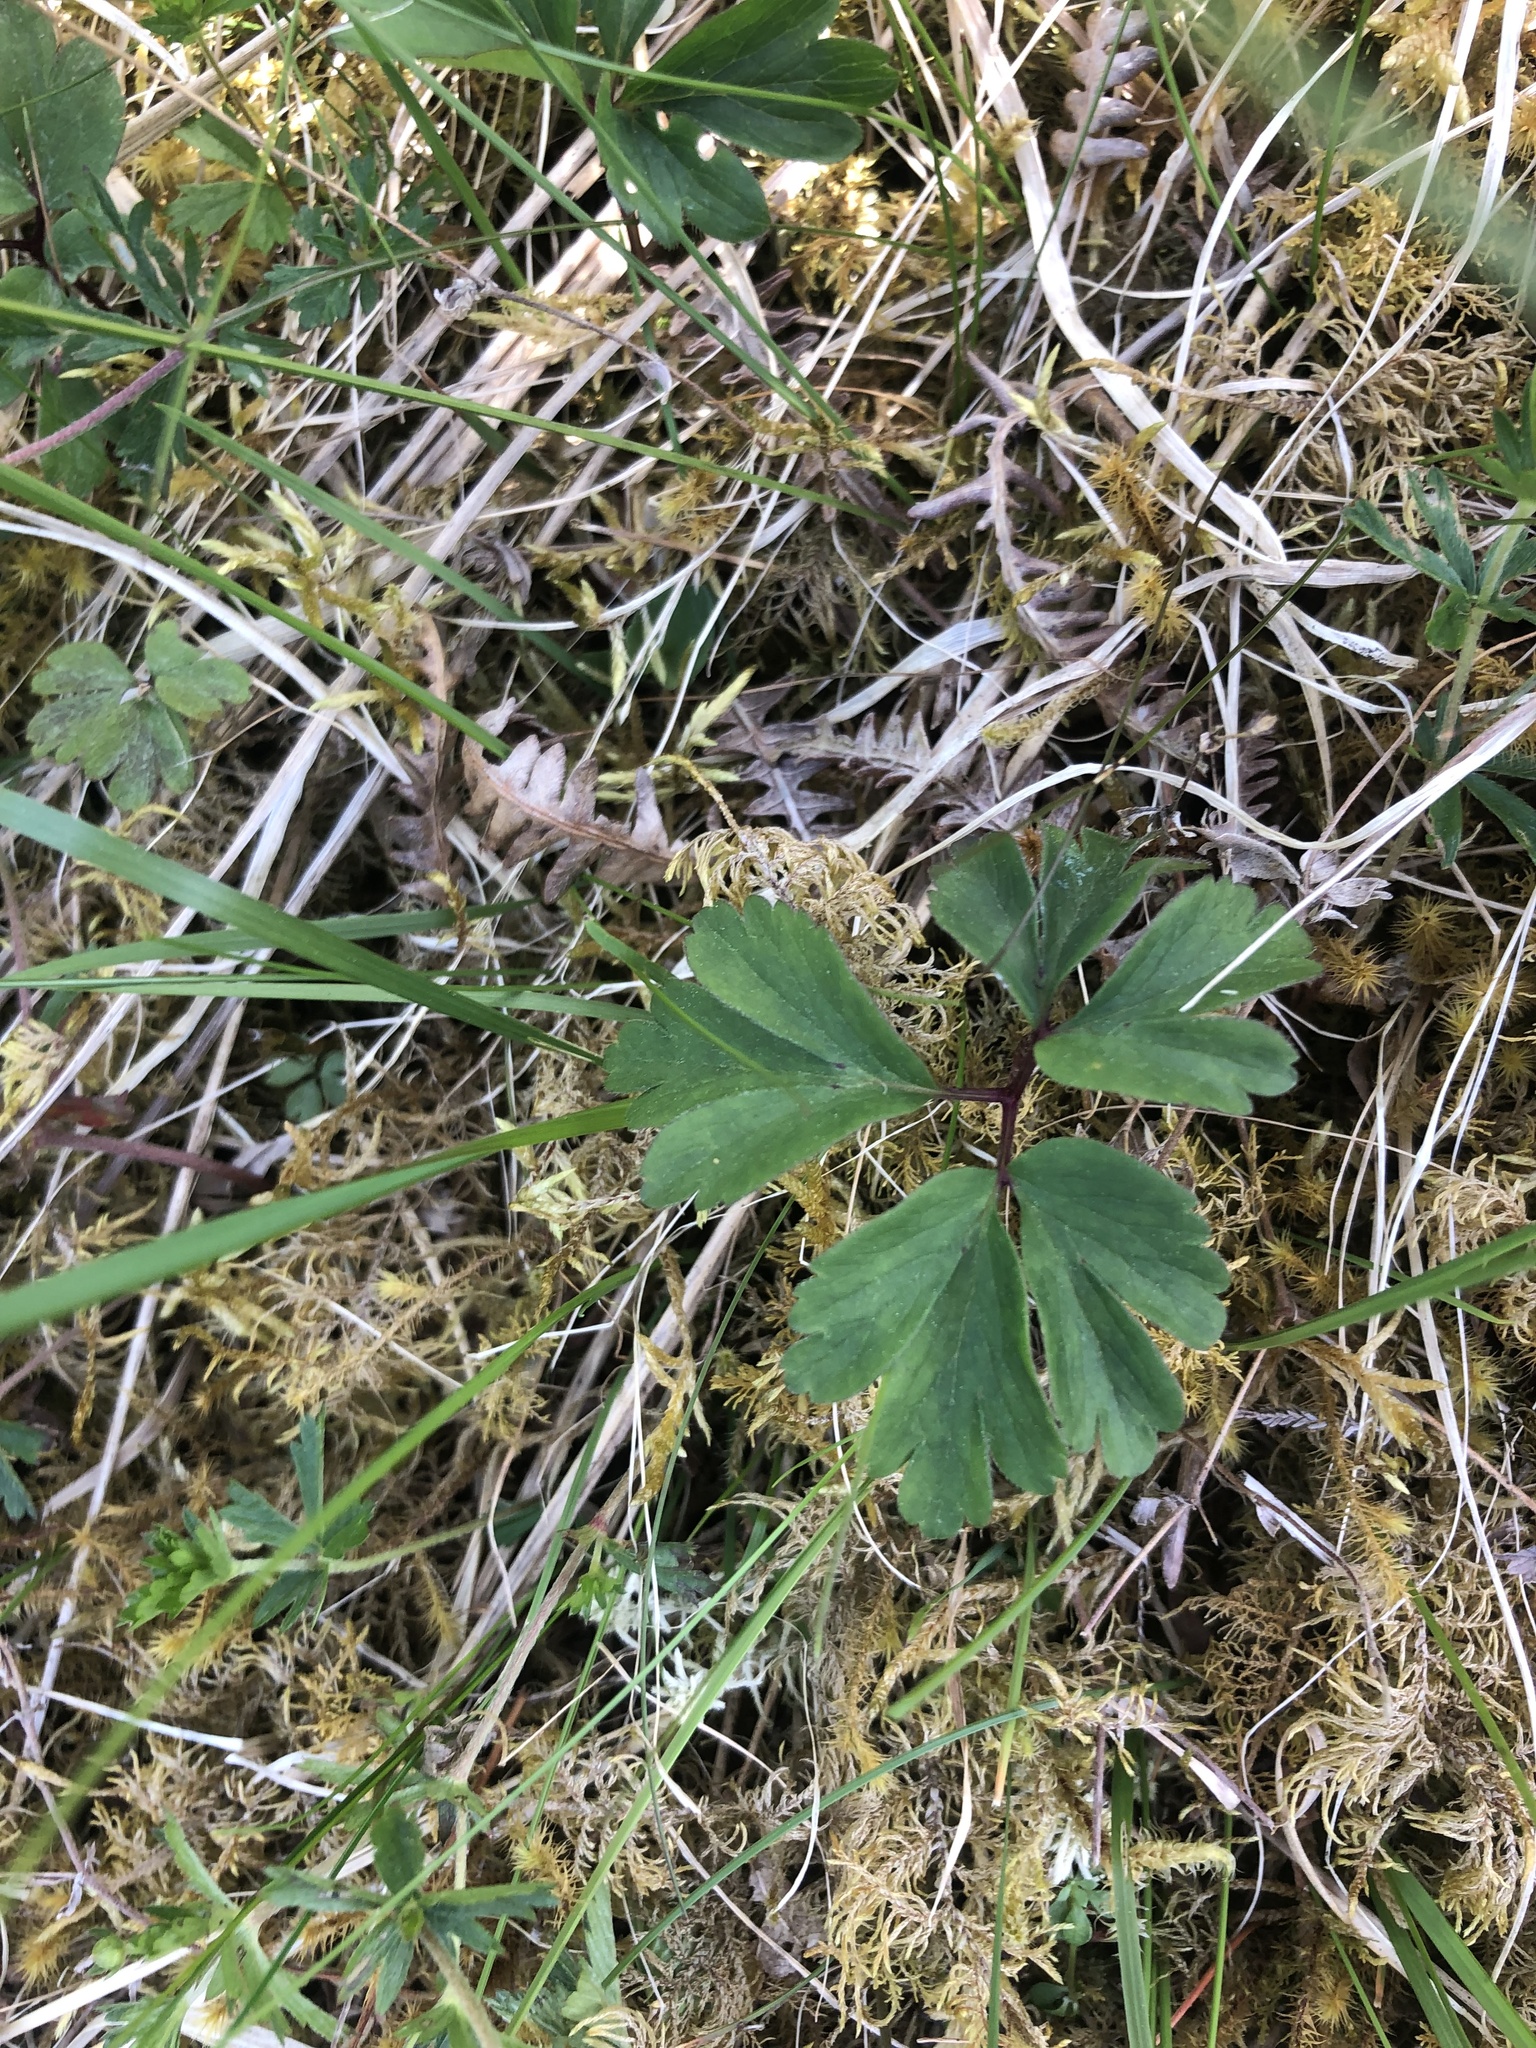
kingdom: Plantae
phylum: Tracheophyta
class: Magnoliopsida
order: Ranunculales
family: Ranunculaceae
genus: Anemone
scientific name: Anemone nemorosa
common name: Wood anemone
